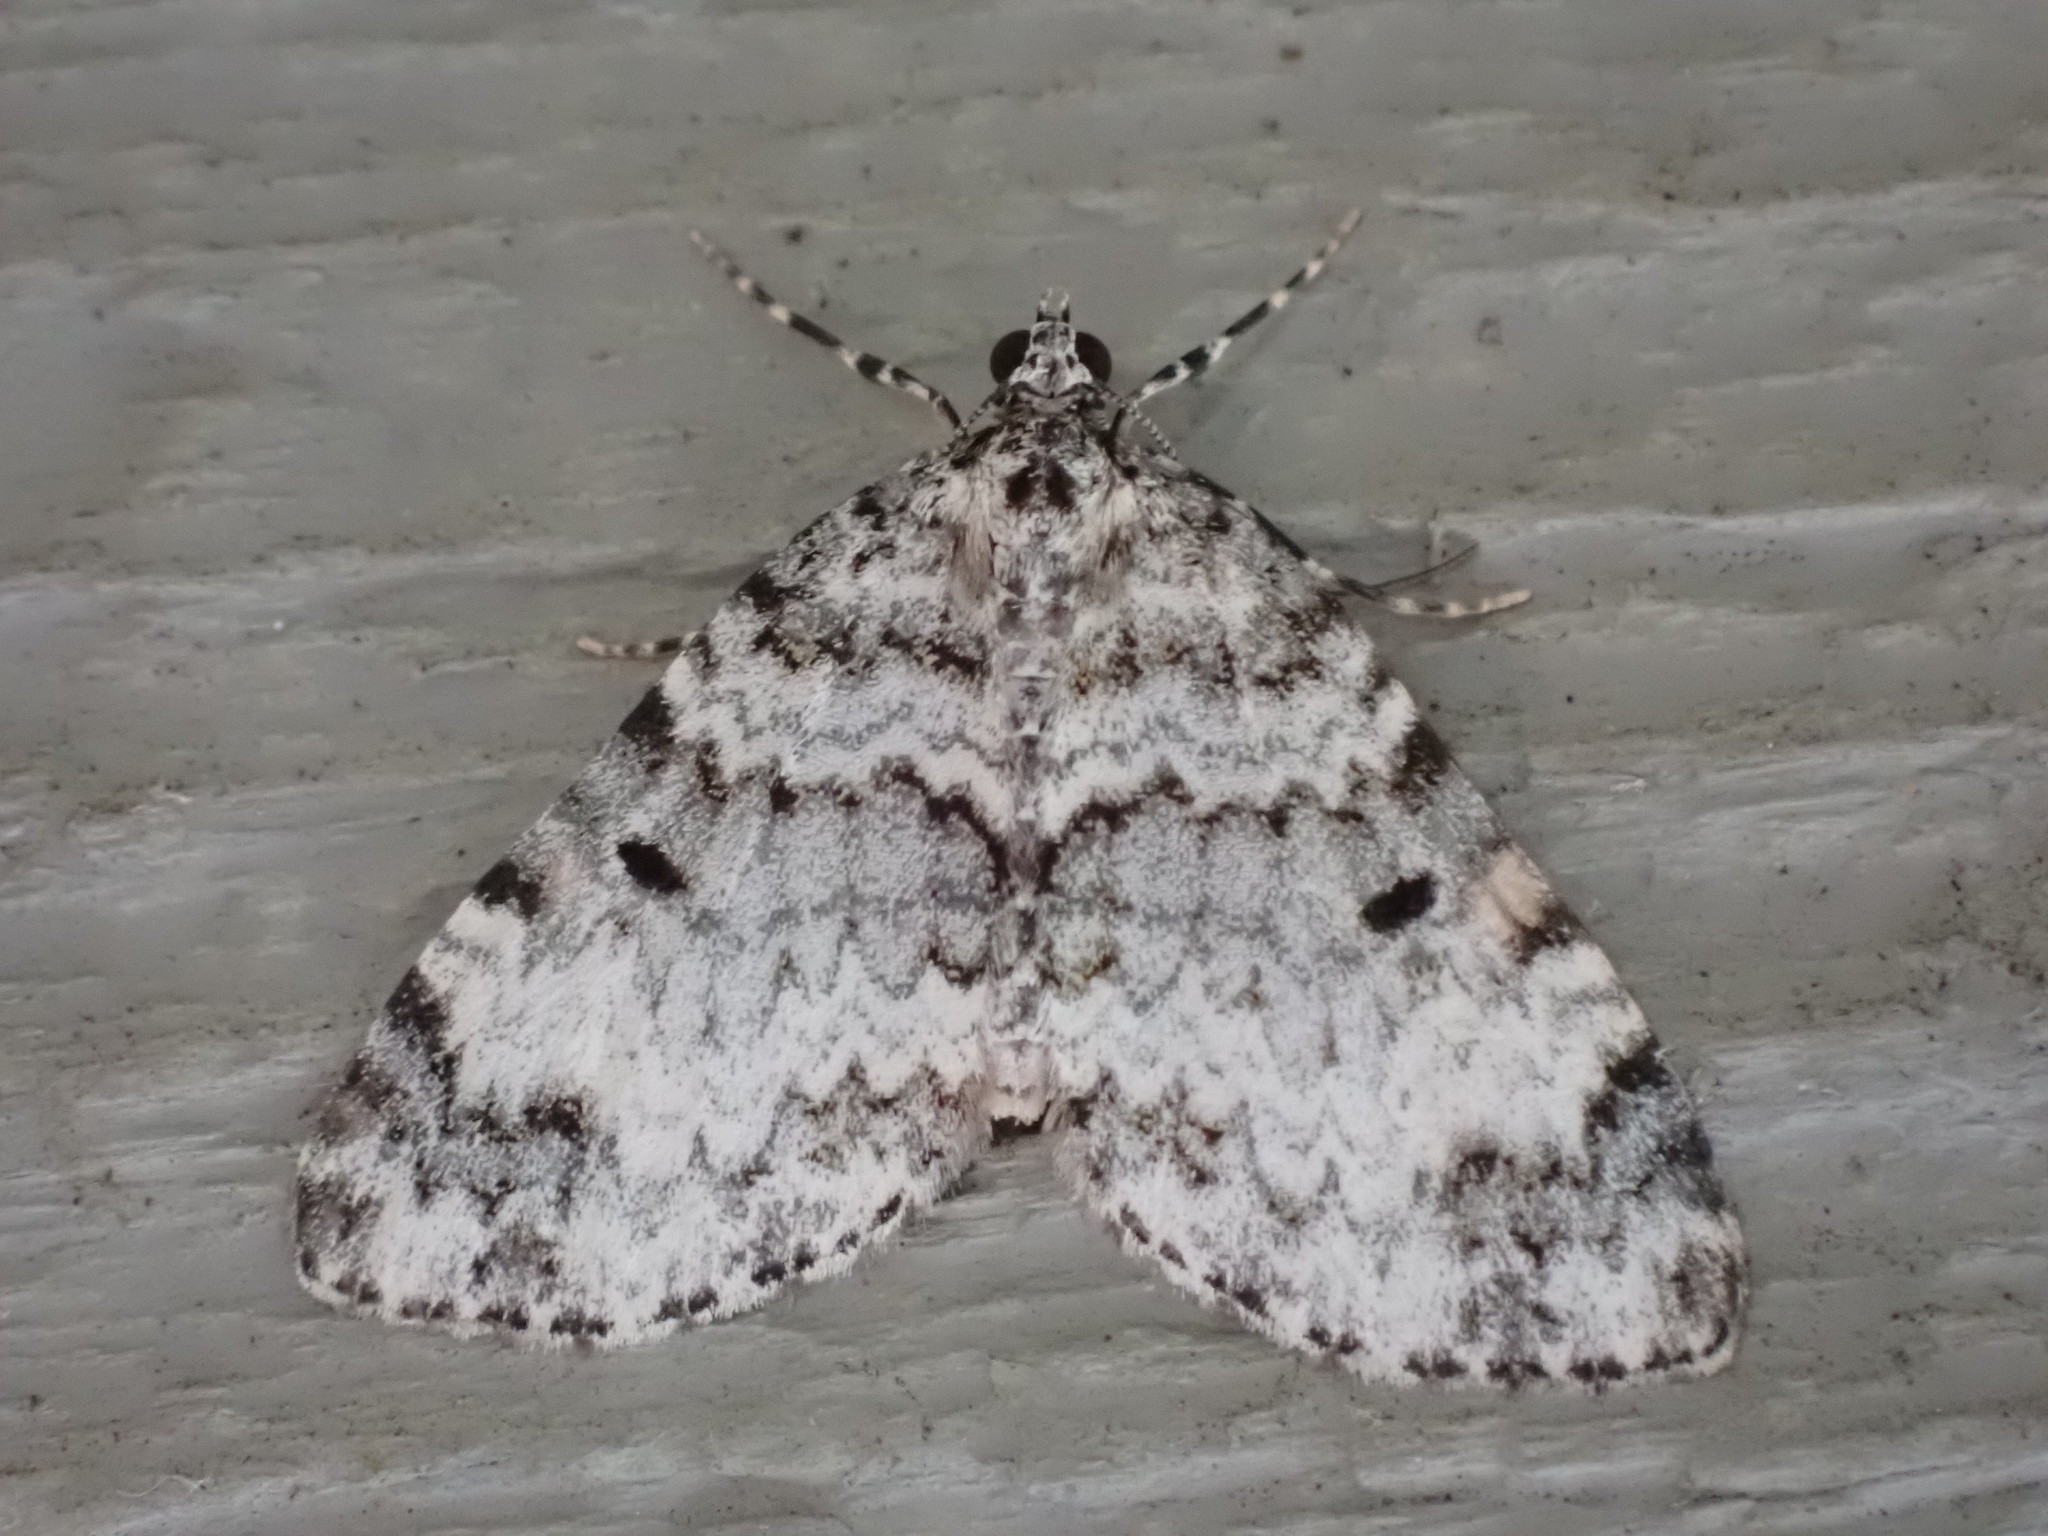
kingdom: Animalia
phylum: Arthropoda
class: Insecta
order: Lepidoptera
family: Geometridae
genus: Spargania
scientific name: Spargania magnoliata
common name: Double-banded carpet
